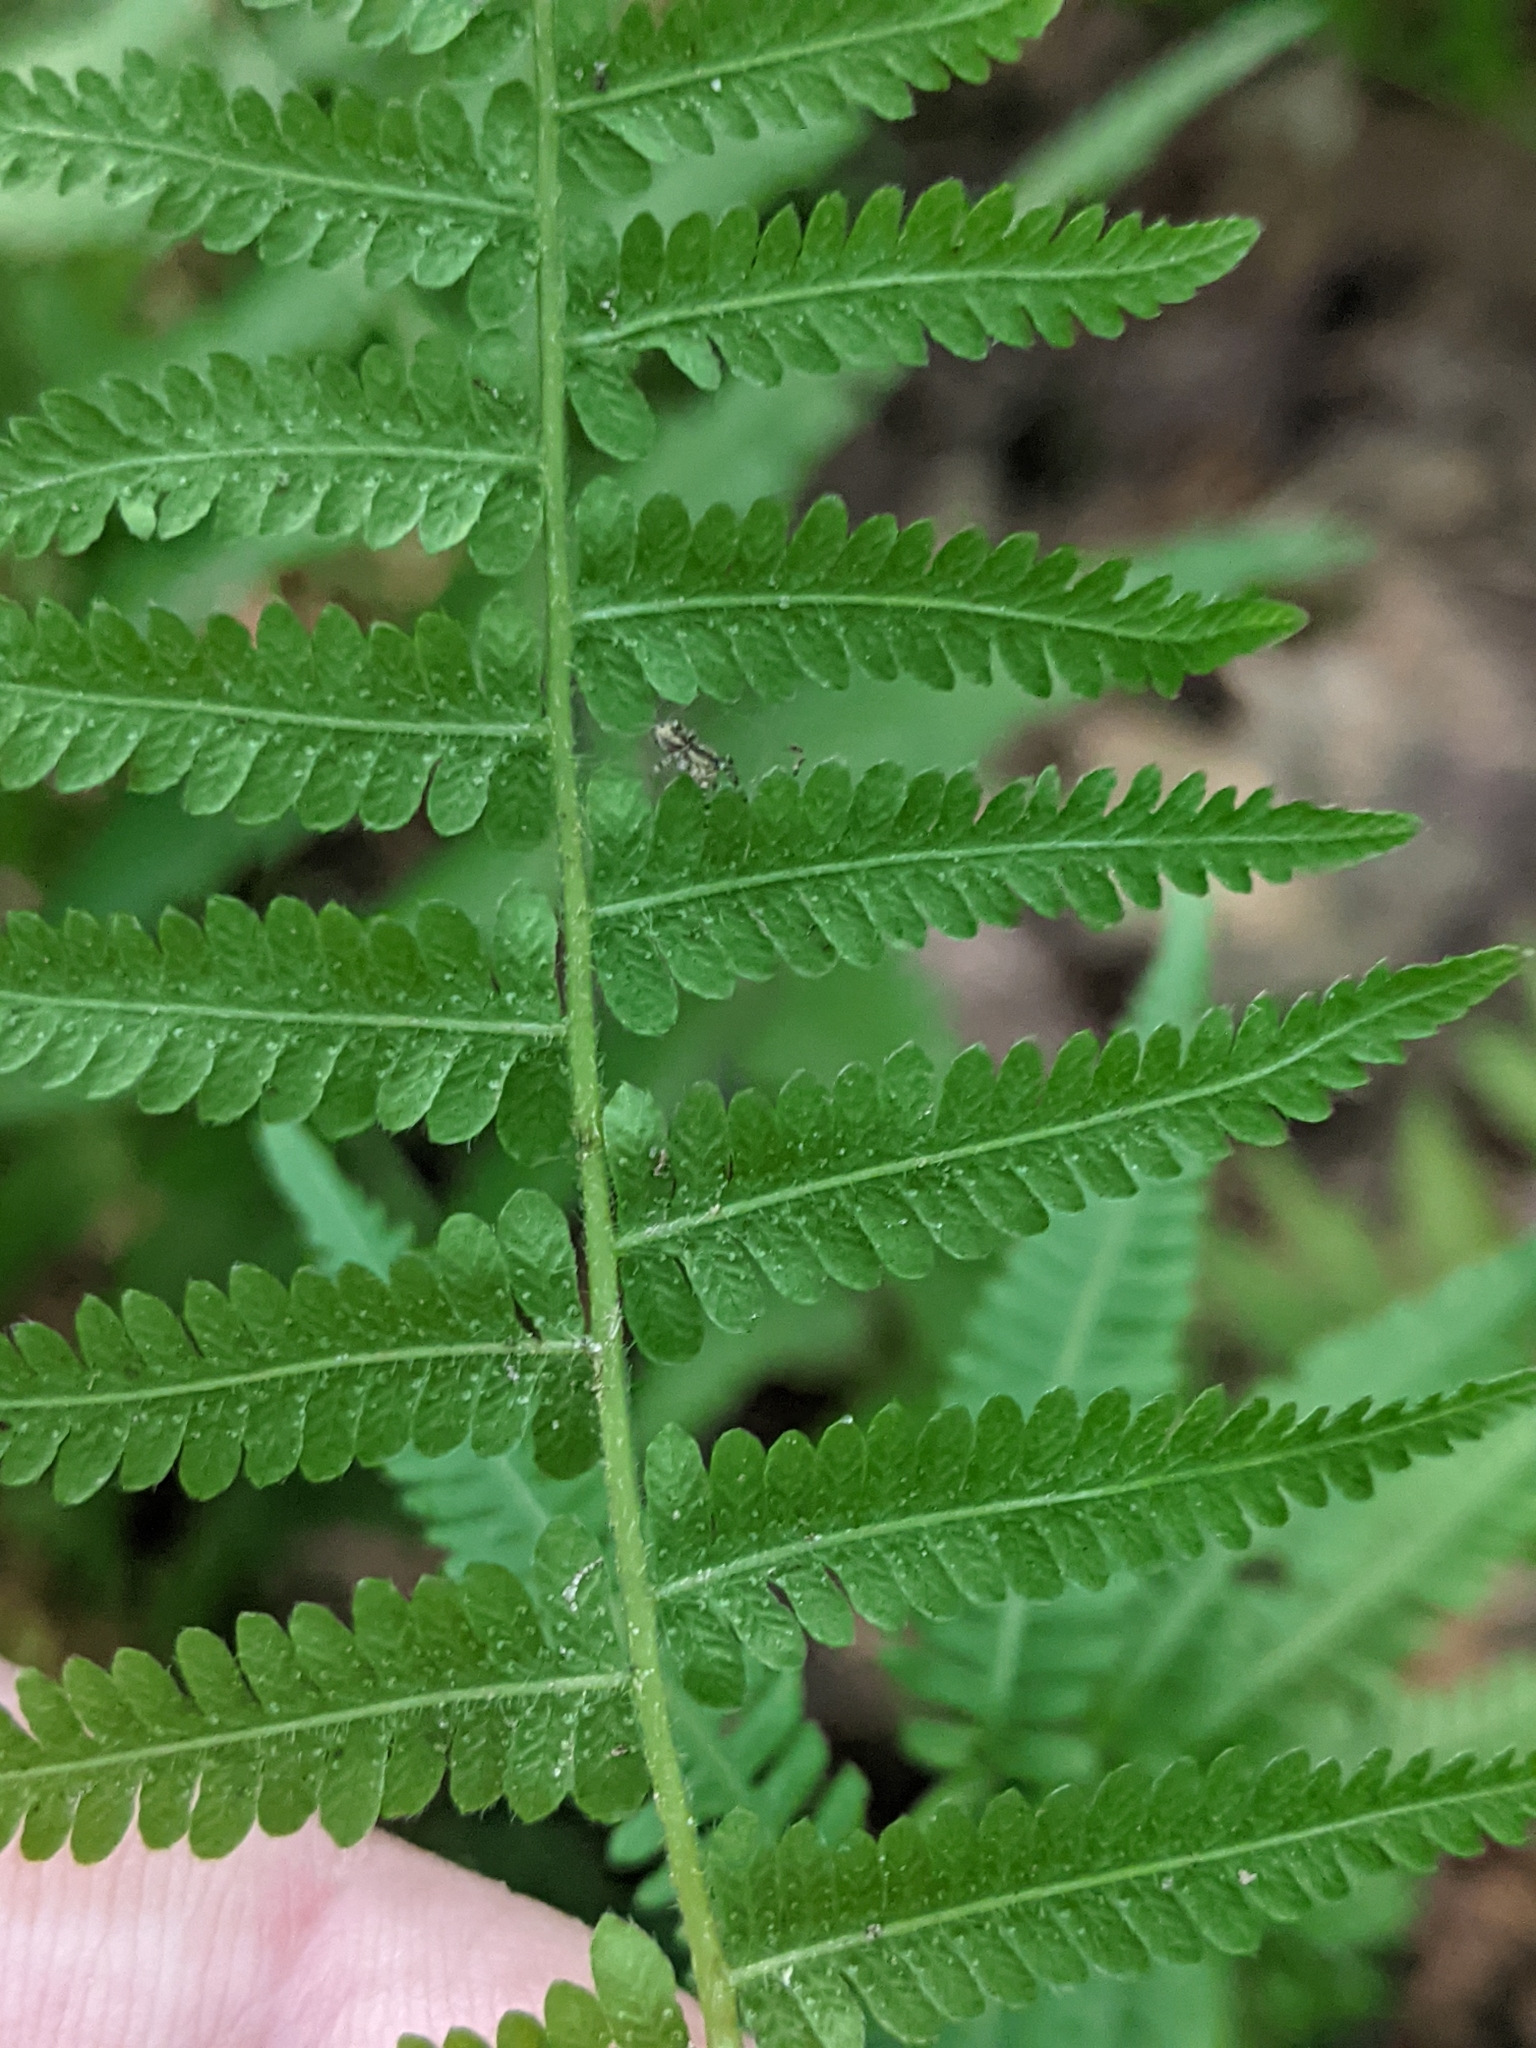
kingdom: Plantae
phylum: Tracheophyta
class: Polypodiopsida
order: Polypodiales
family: Thelypteridaceae
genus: Amauropelta
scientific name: Amauropelta noveboracensis
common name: New york fern
